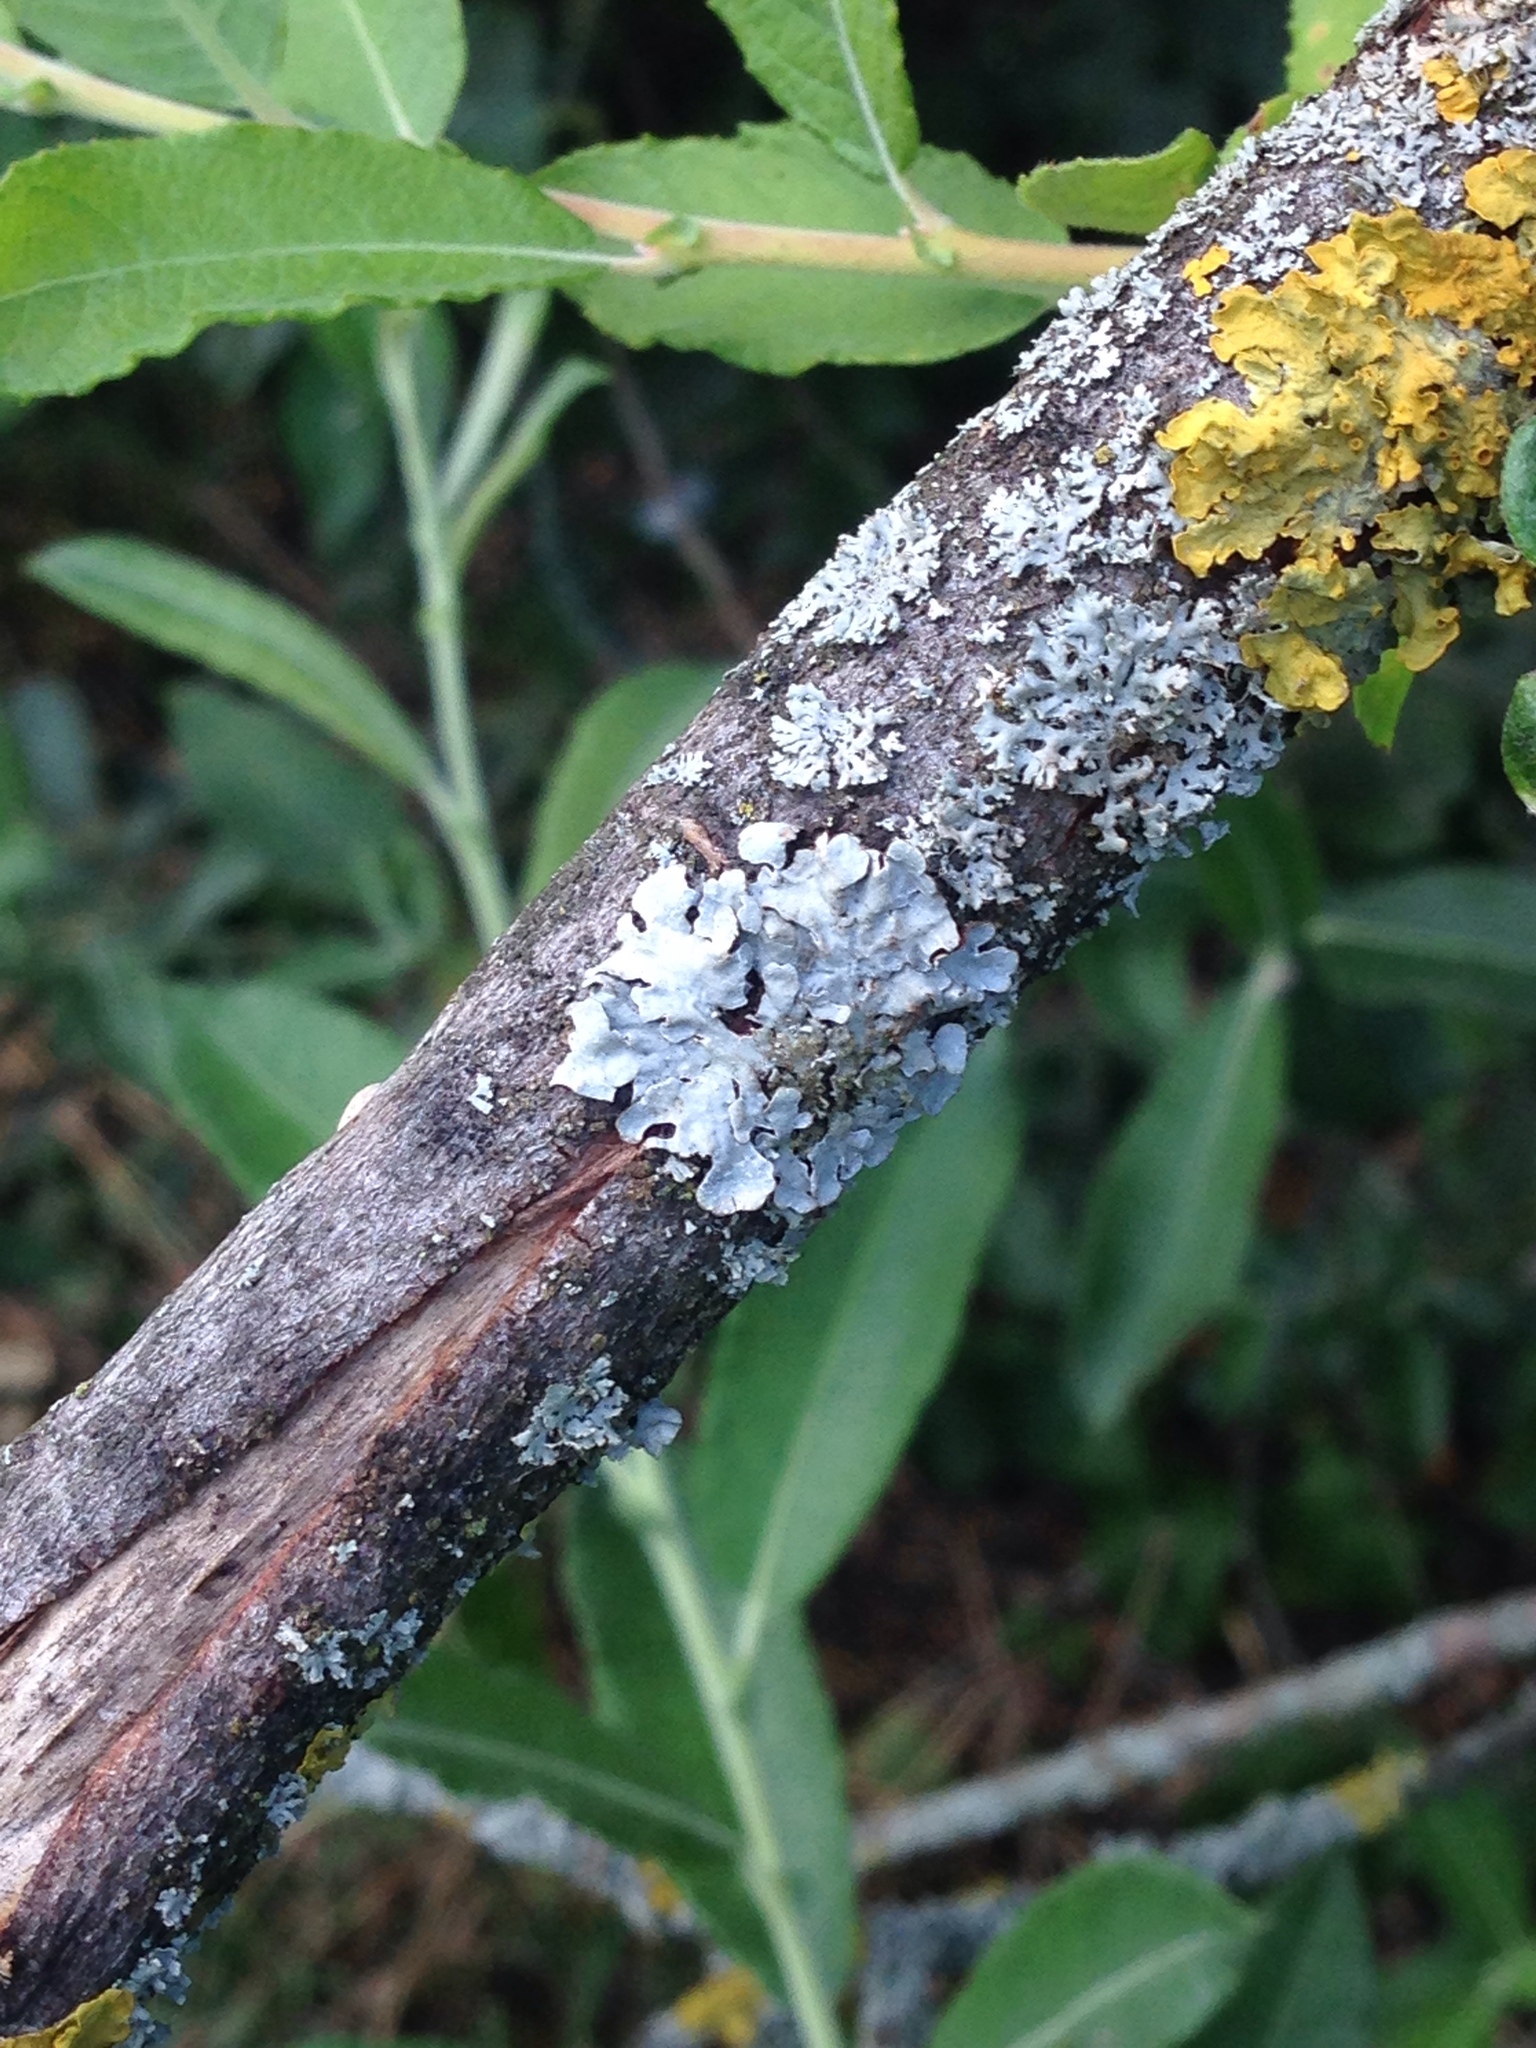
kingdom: Fungi
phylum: Ascomycota
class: Lecanoromycetes
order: Lecanorales
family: Parmeliaceae
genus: Parmelia
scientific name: Parmelia sulcata
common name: Netted shield lichen
